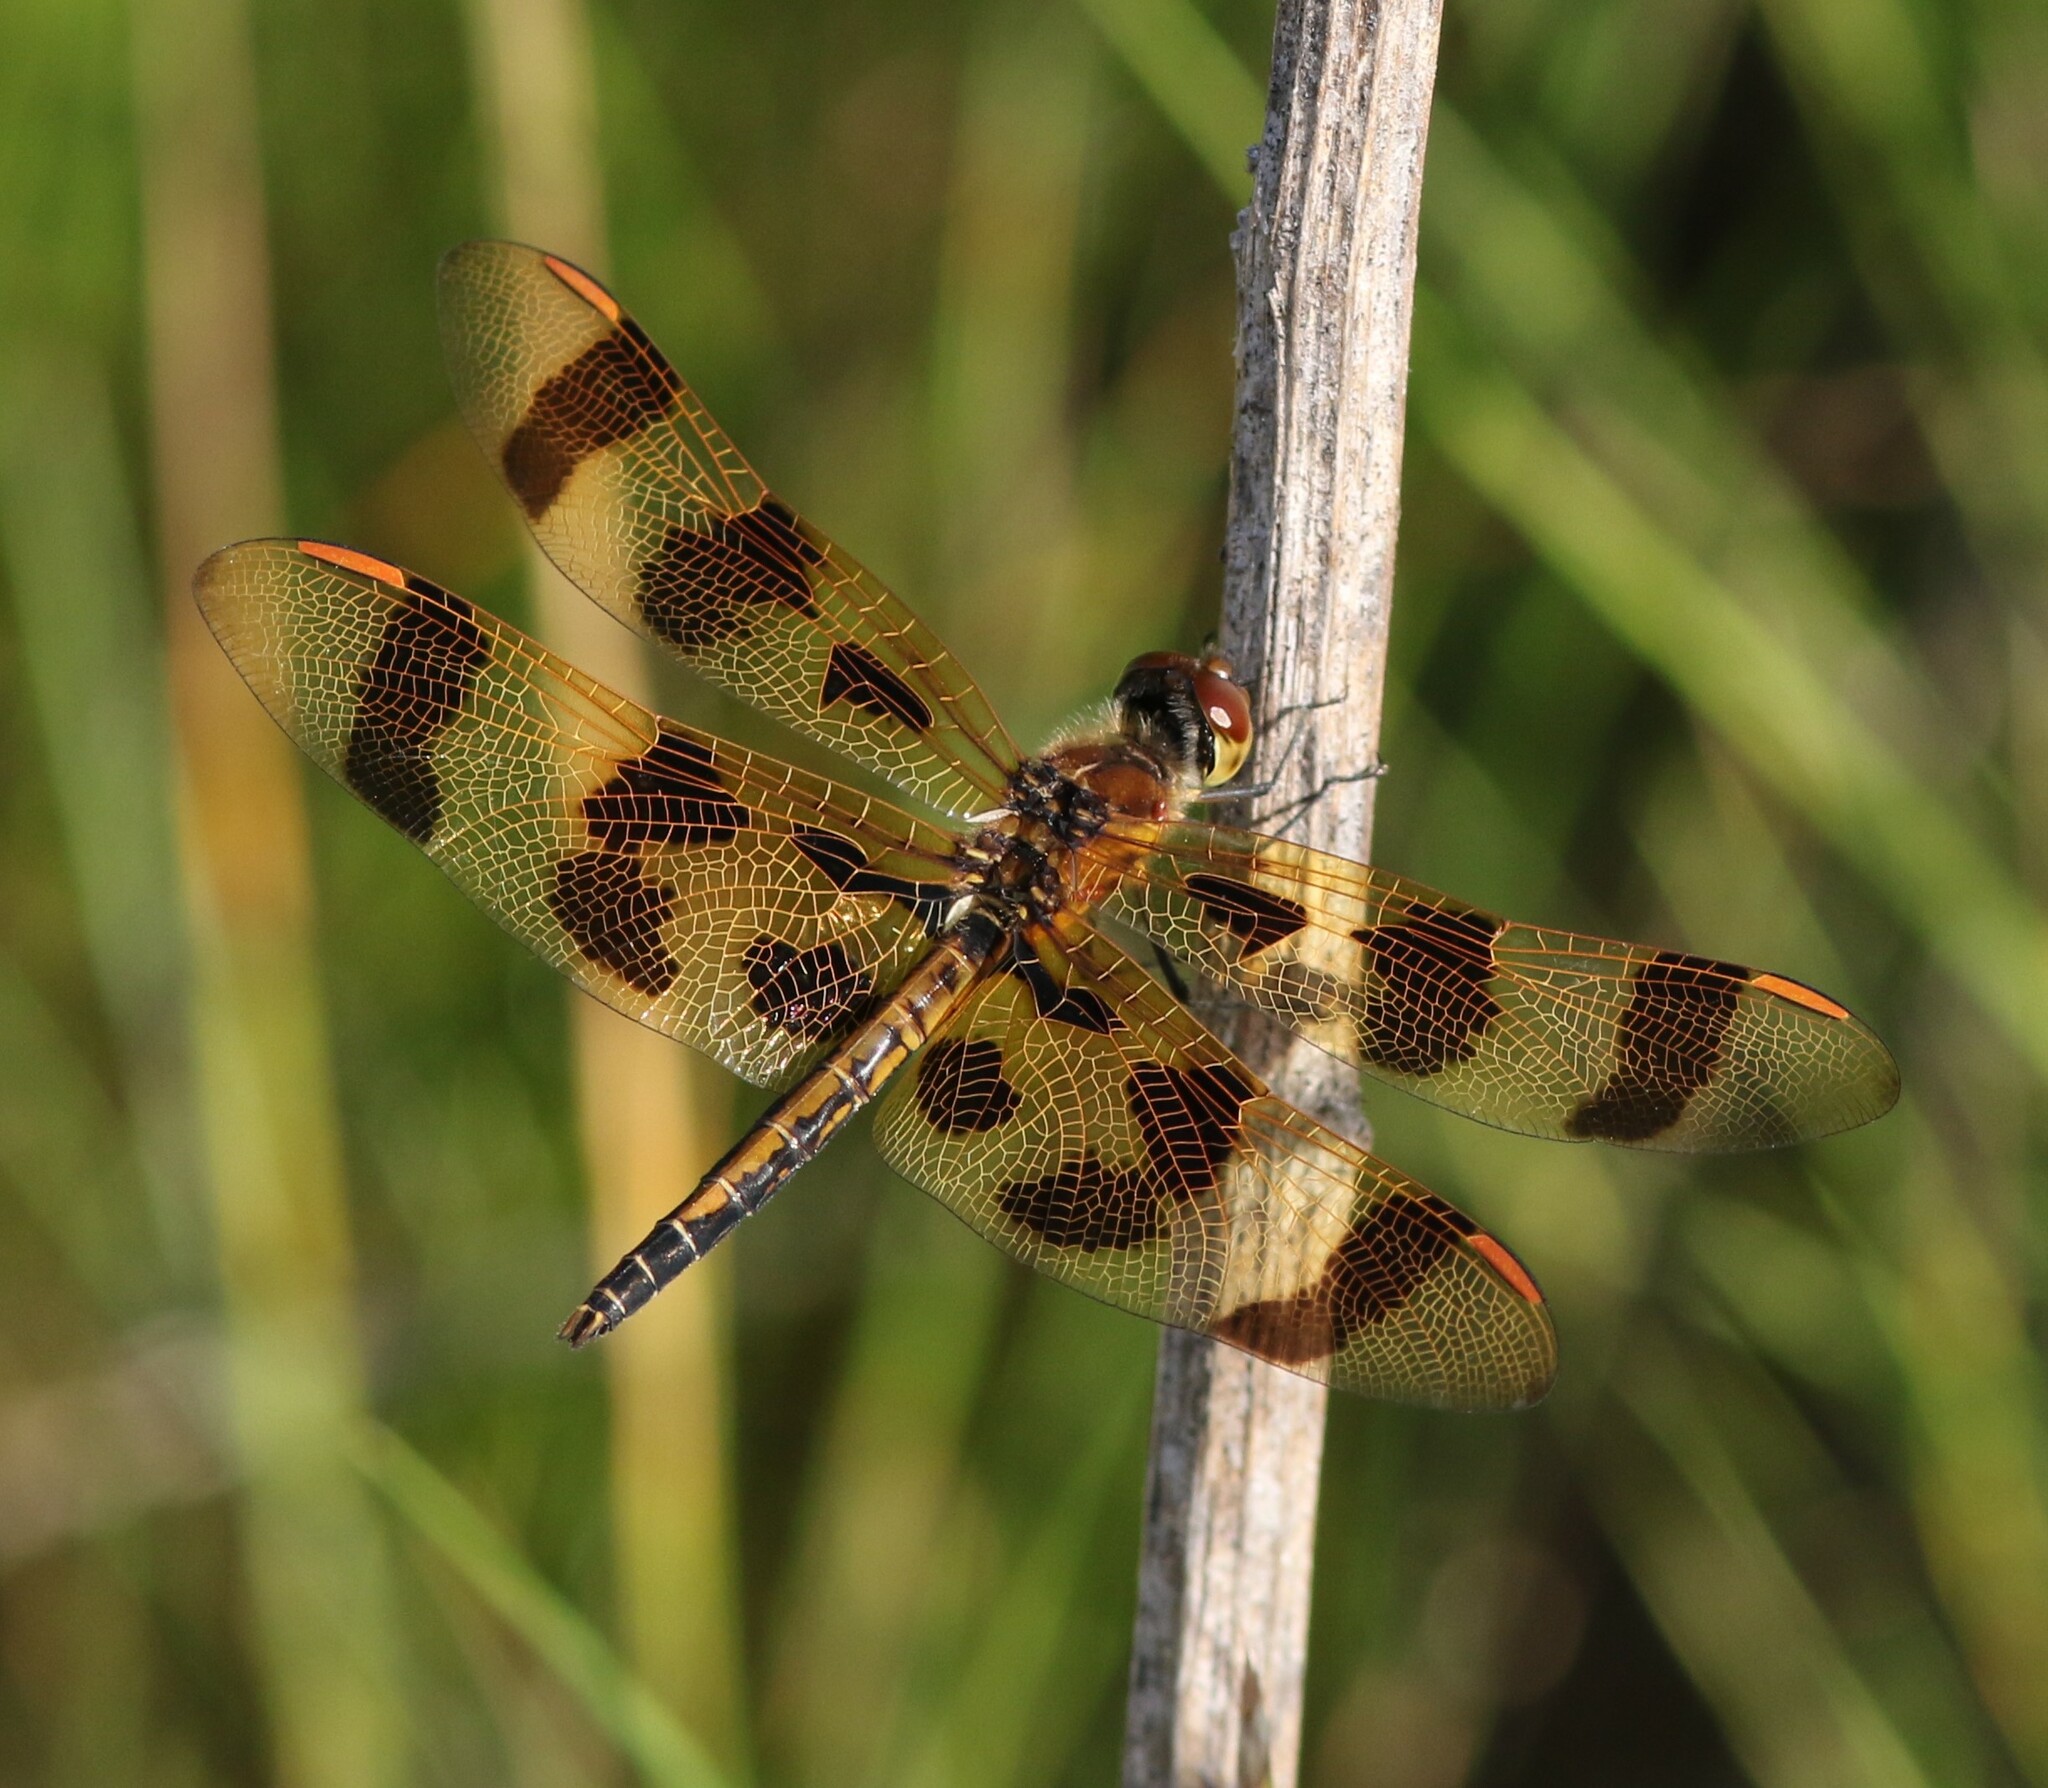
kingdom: Animalia
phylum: Arthropoda
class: Insecta
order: Odonata
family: Libellulidae
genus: Celithemis
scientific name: Celithemis eponina
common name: Halloween pennant
